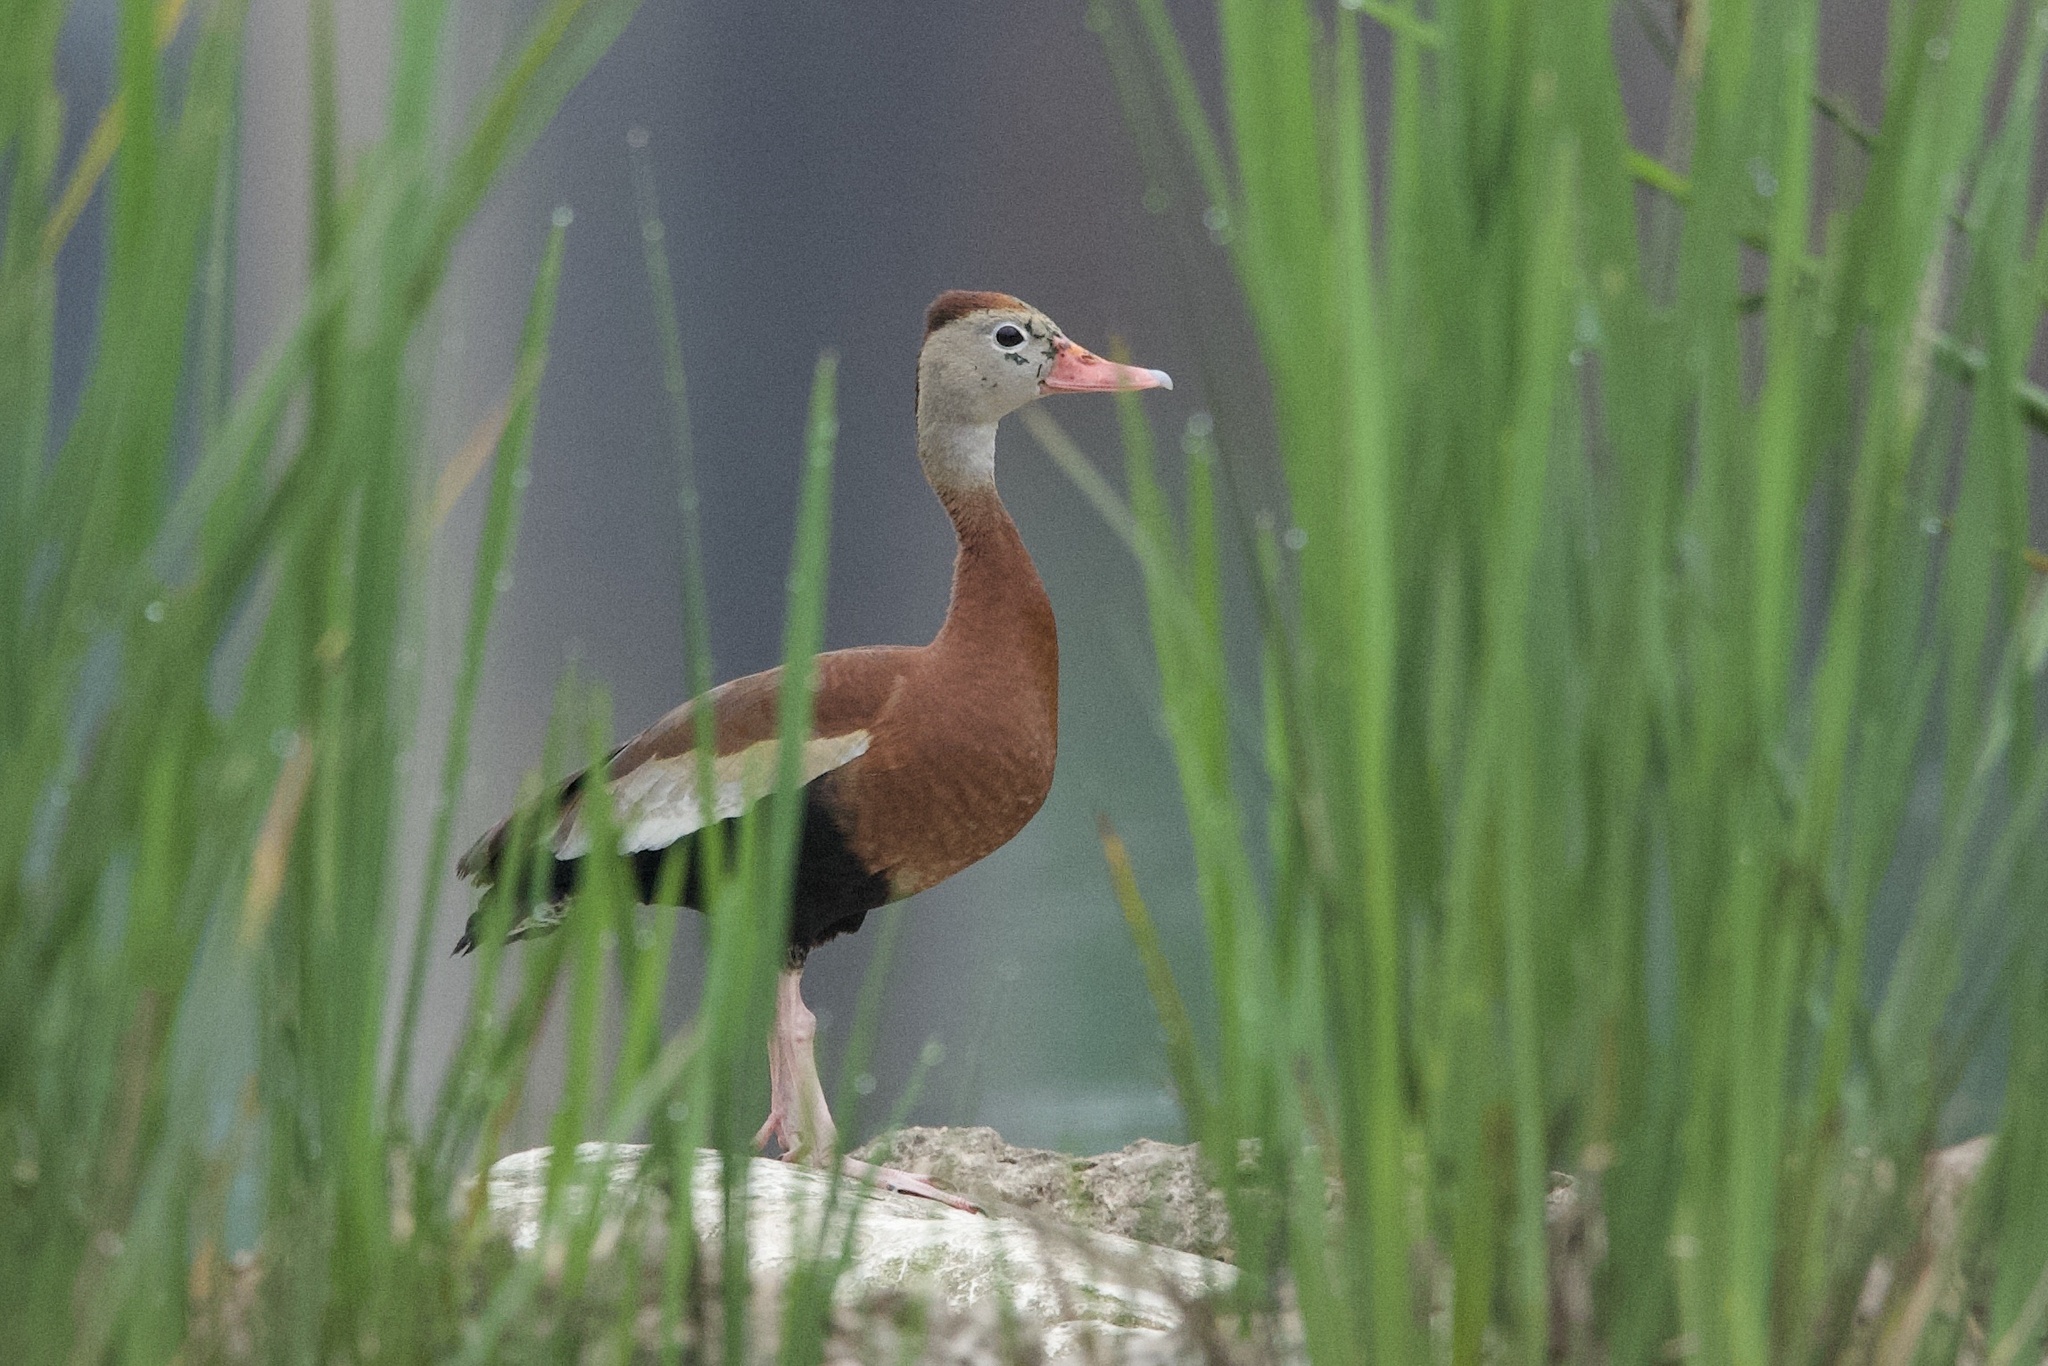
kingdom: Animalia
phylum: Chordata
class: Aves
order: Anseriformes
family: Anatidae
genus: Dendrocygna
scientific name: Dendrocygna autumnalis
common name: Black-bellied whistling duck
